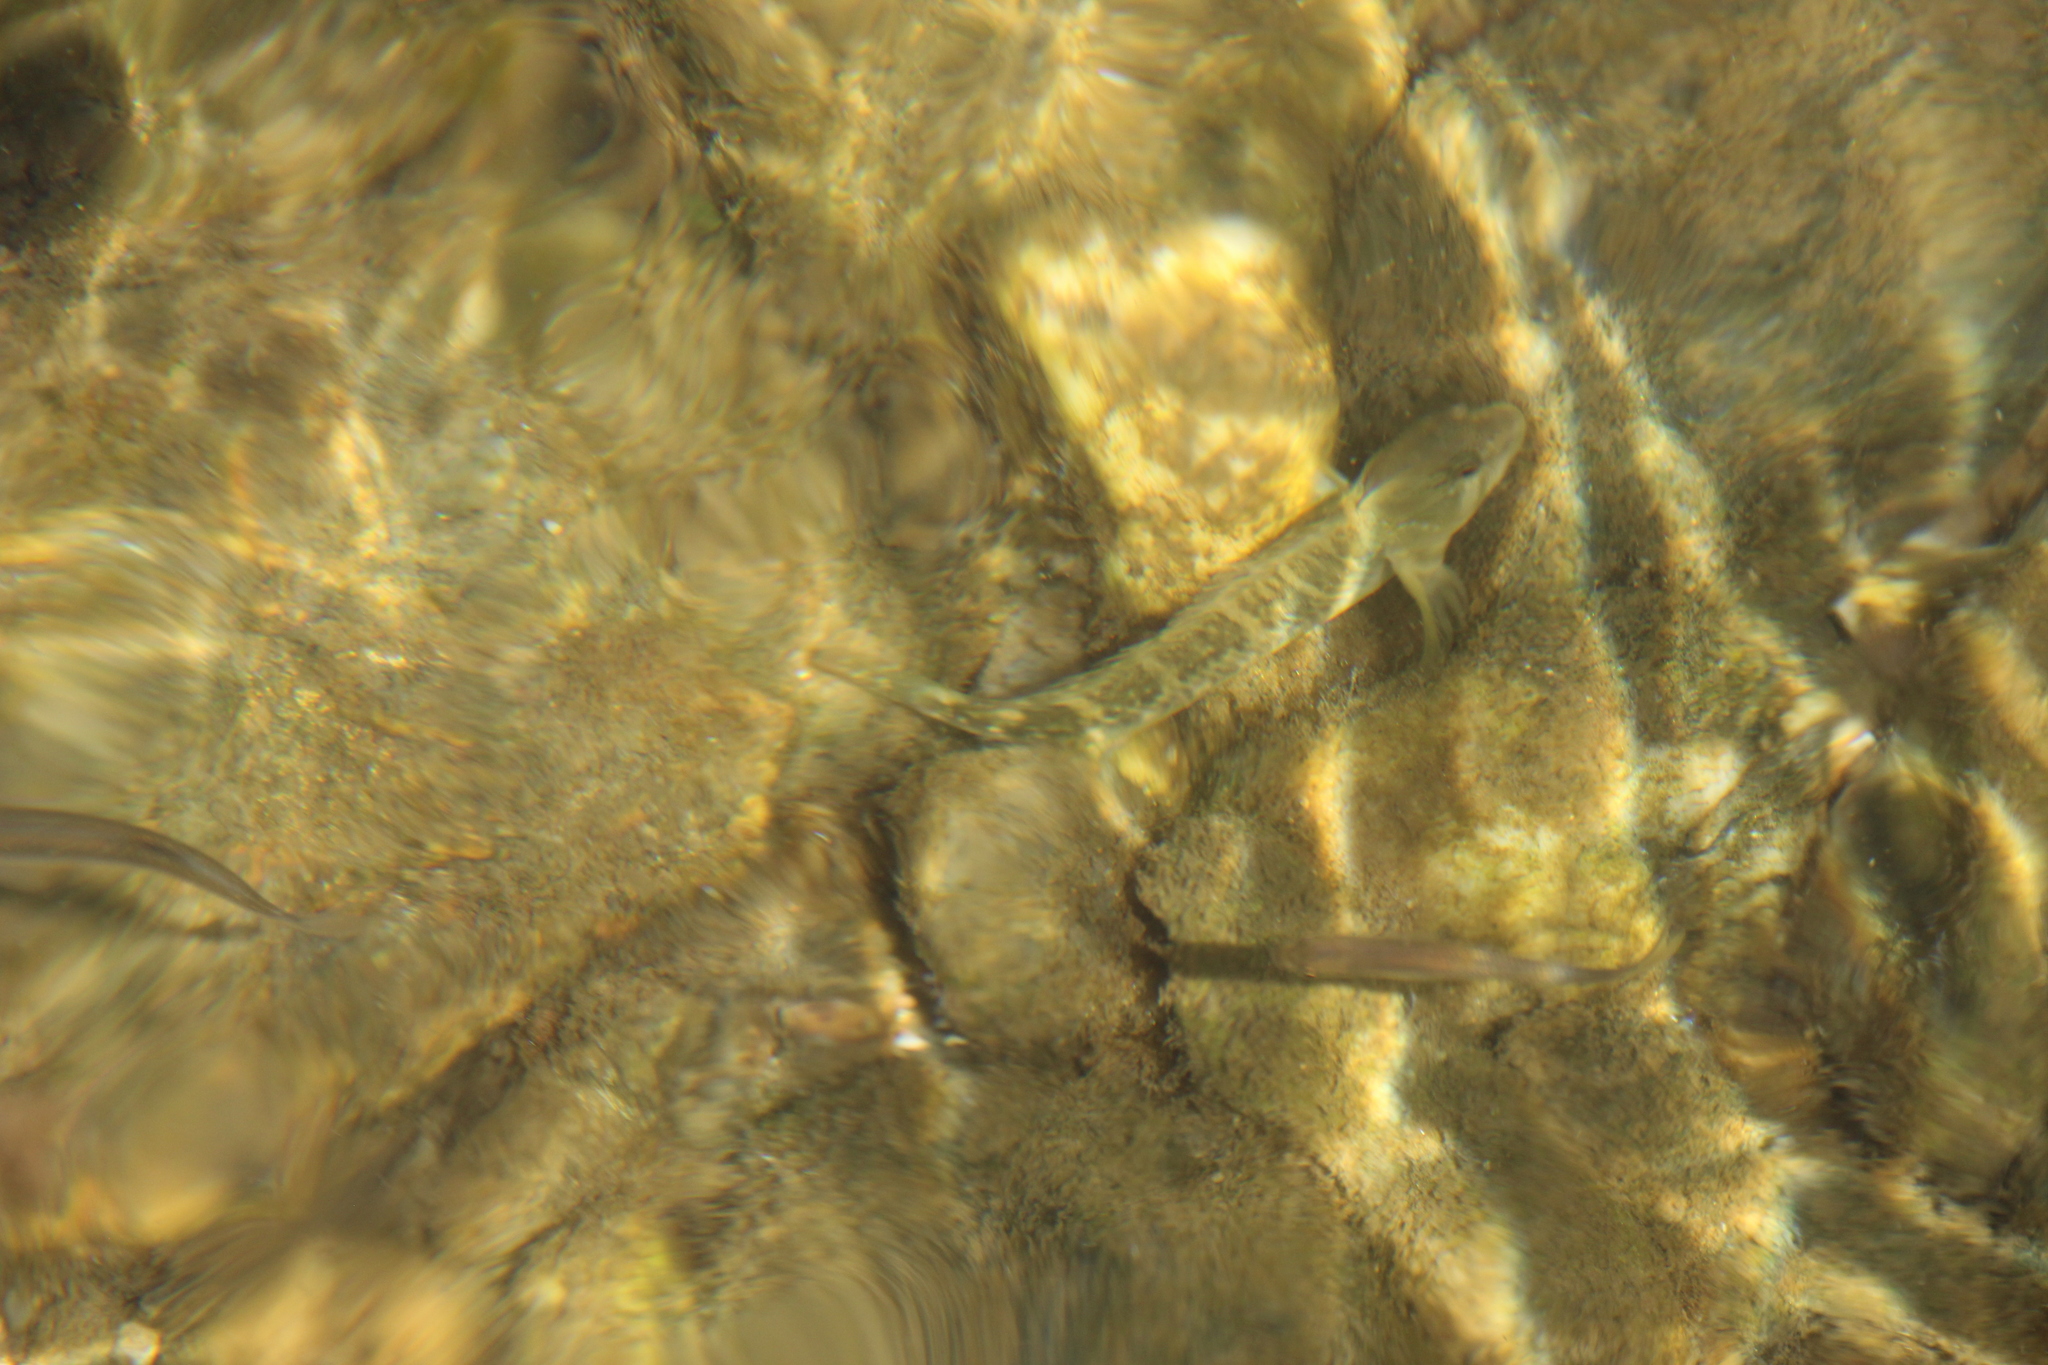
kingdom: Animalia
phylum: Chordata
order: Perciformes
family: Blenniidae
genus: Salaria
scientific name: Salaria fluviatilis
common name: Freshwater blenny
